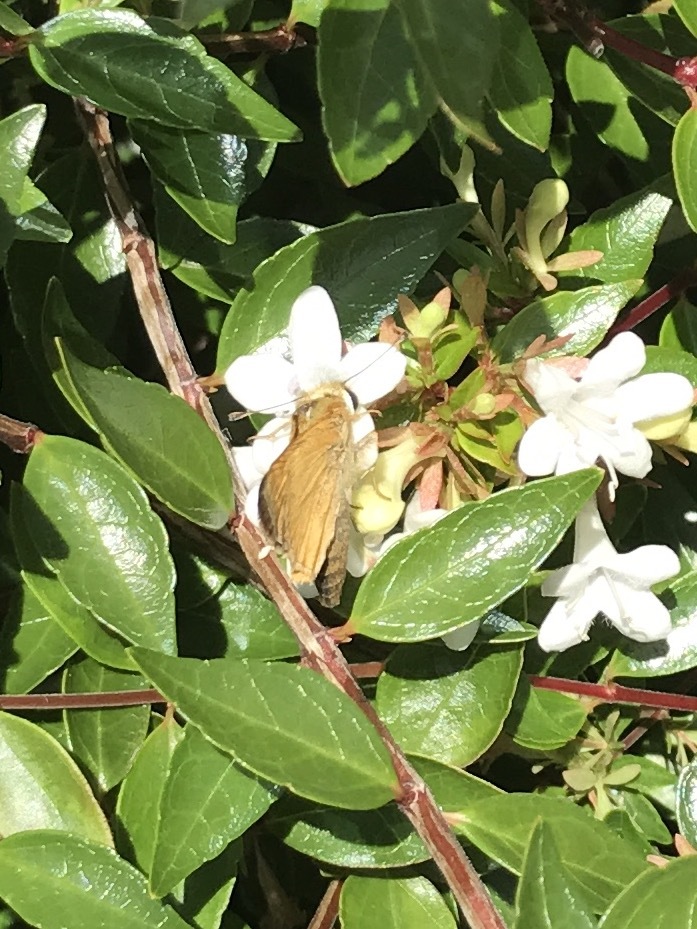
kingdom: Animalia
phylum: Arthropoda
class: Insecta
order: Lepidoptera
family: Hesperiidae
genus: Atalopedes
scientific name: Atalopedes
